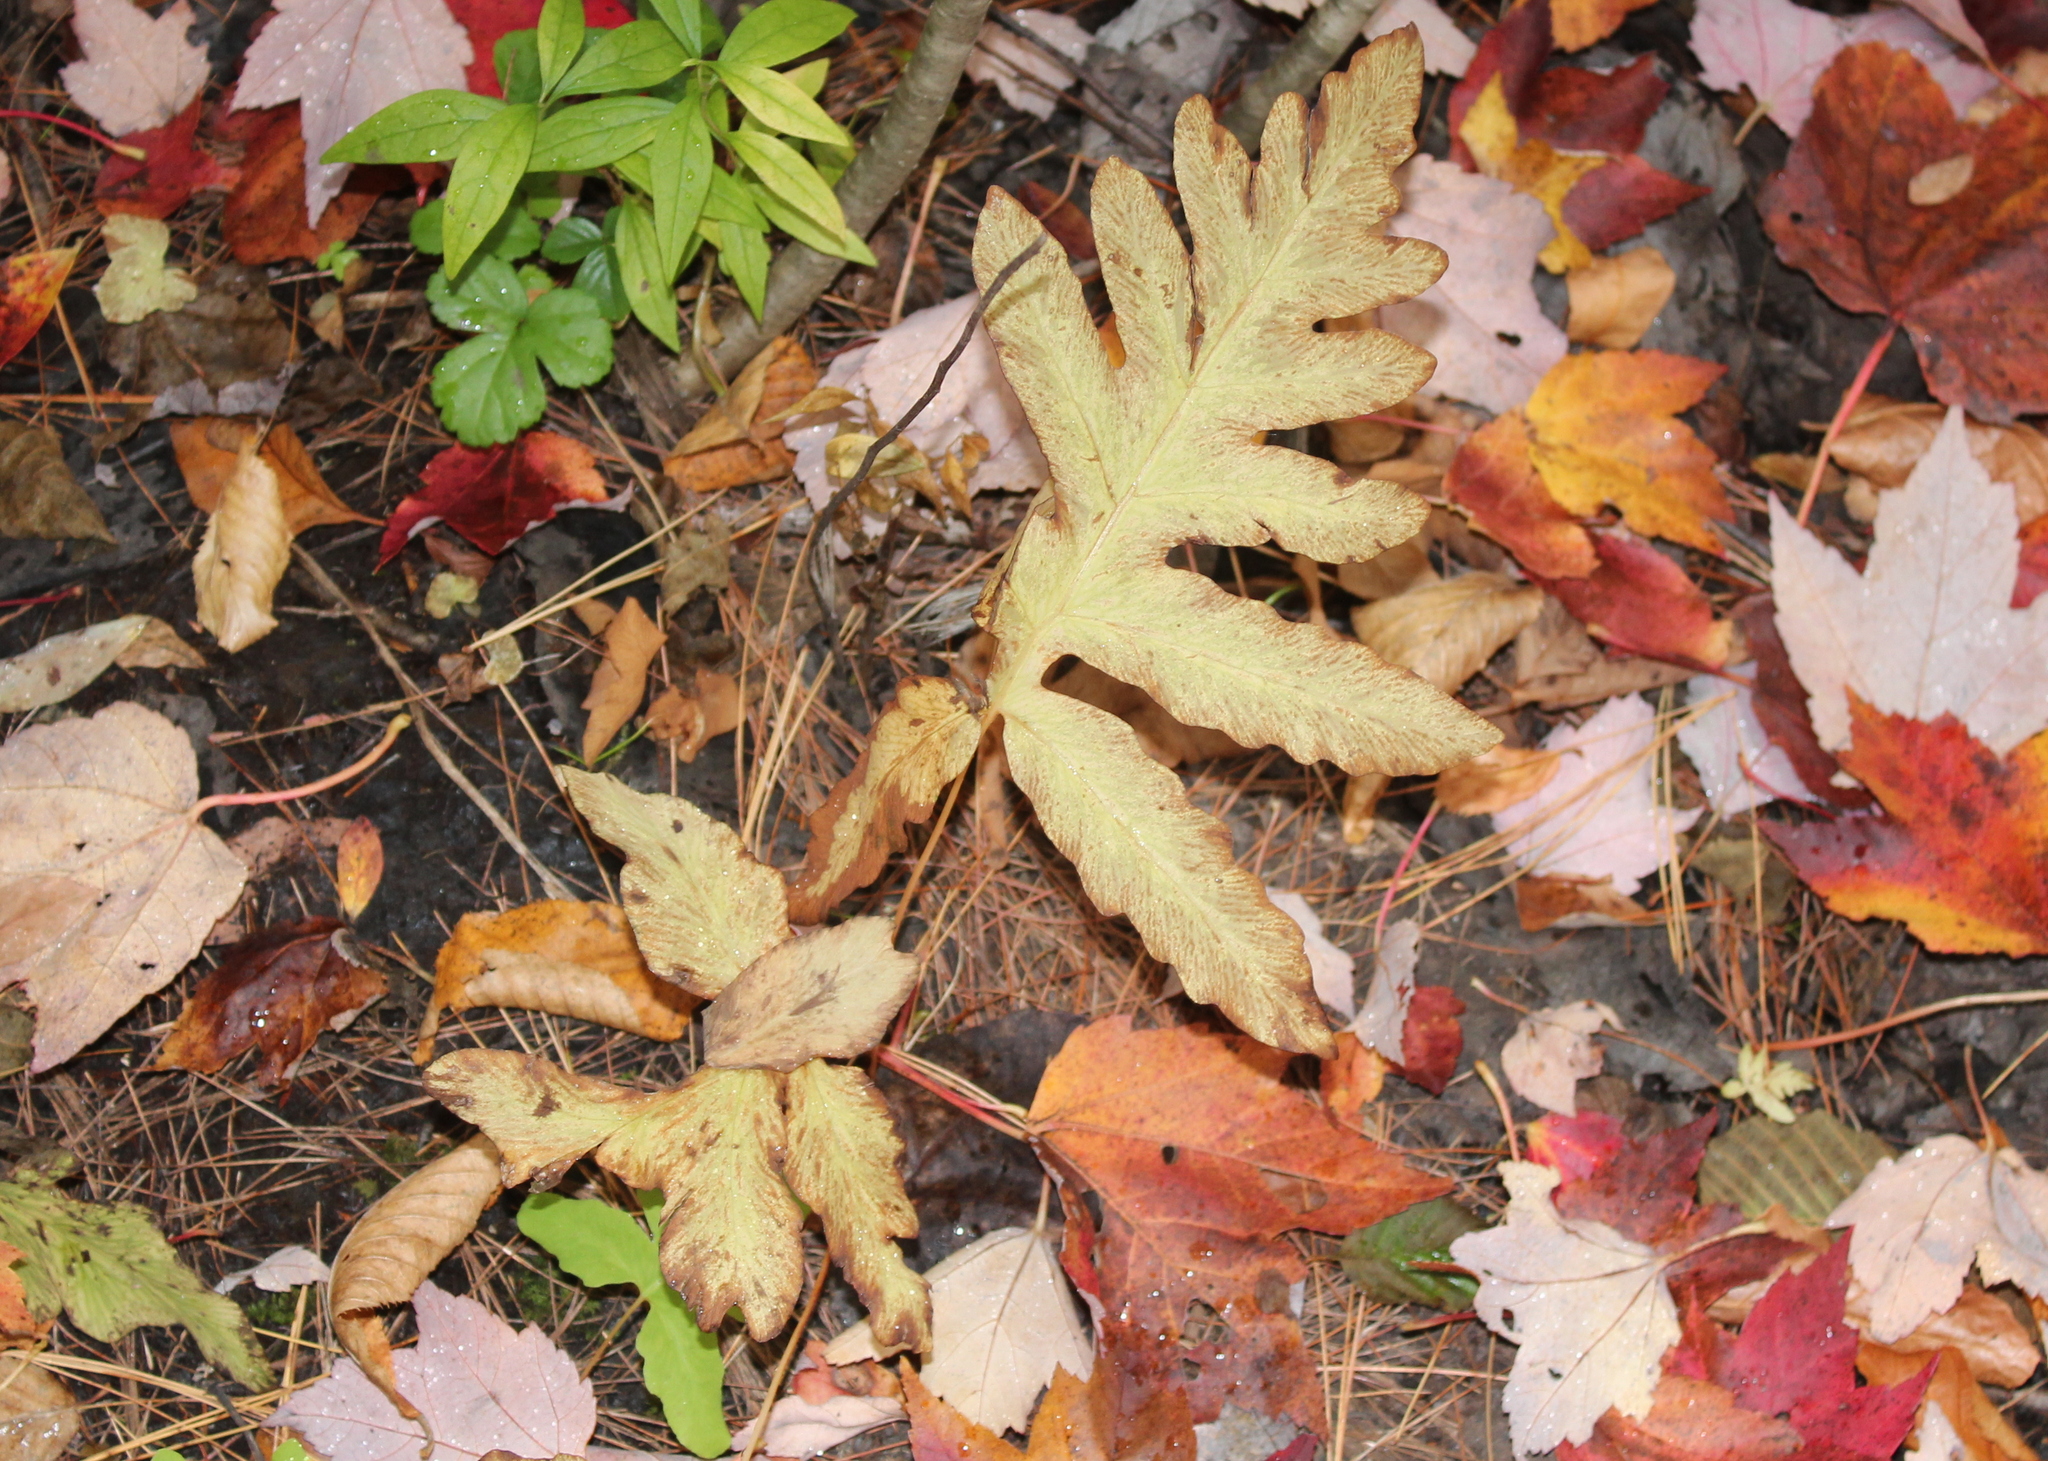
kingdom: Plantae
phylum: Tracheophyta
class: Polypodiopsida
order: Polypodiales
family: Onocleaceae
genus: Onoclea
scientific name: Onoclea sensibilis
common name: Sensitive fern
